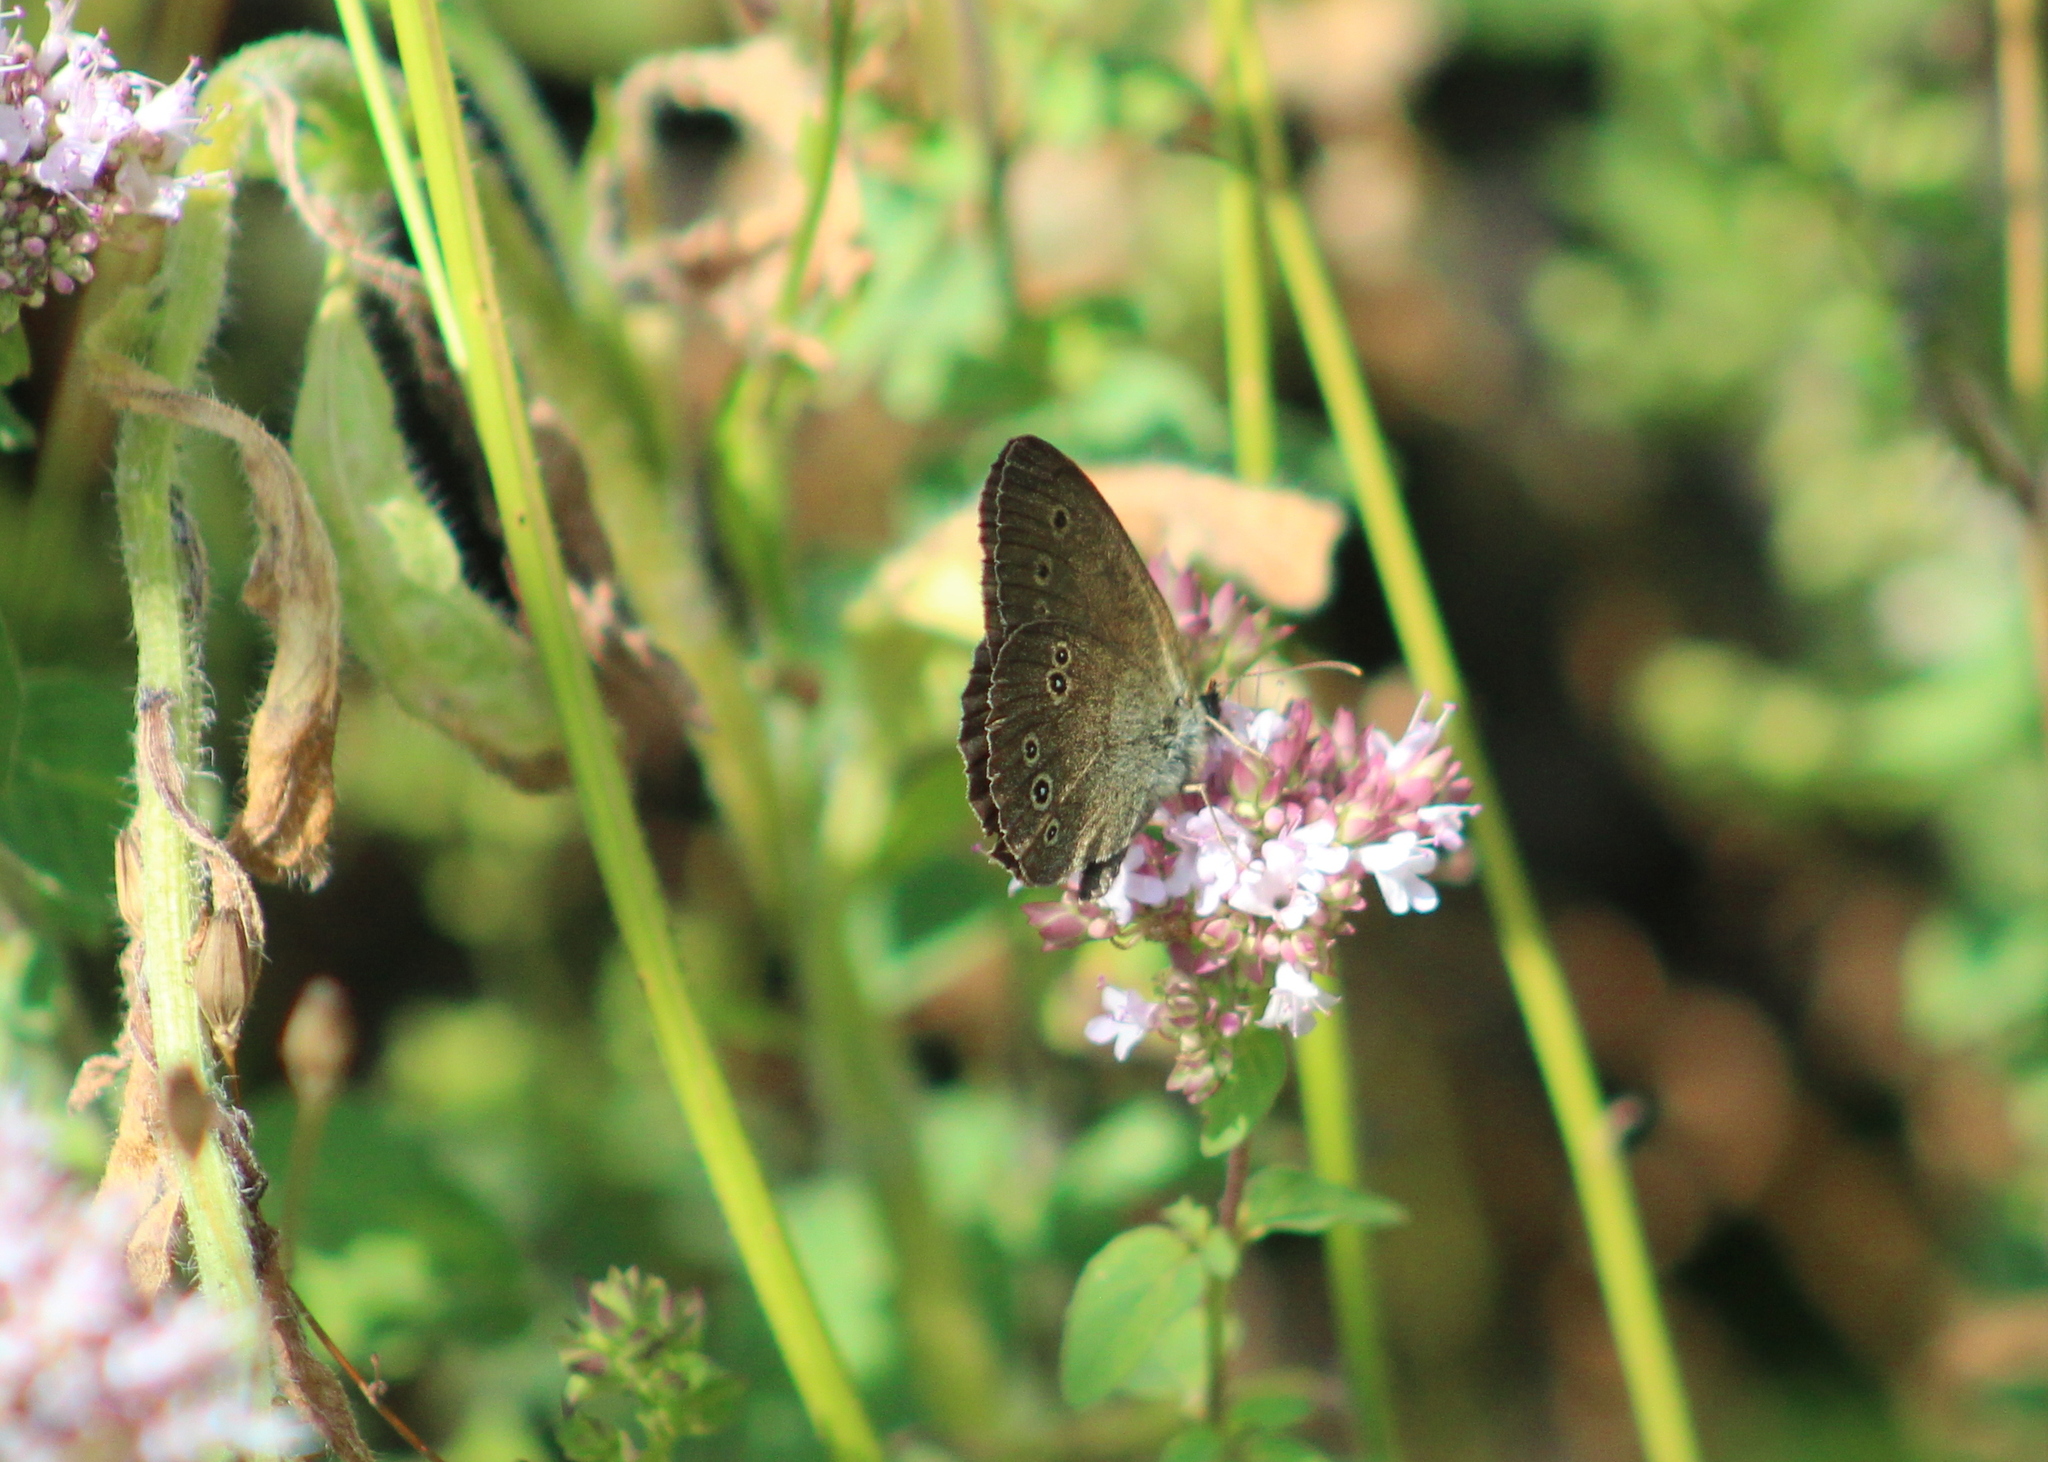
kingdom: Animalia
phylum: Arthropoda
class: Insecta
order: Lepidoptera
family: Nymphalidae
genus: Aphantopus
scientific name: Aphantopus hyperantus
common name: Ringlet
